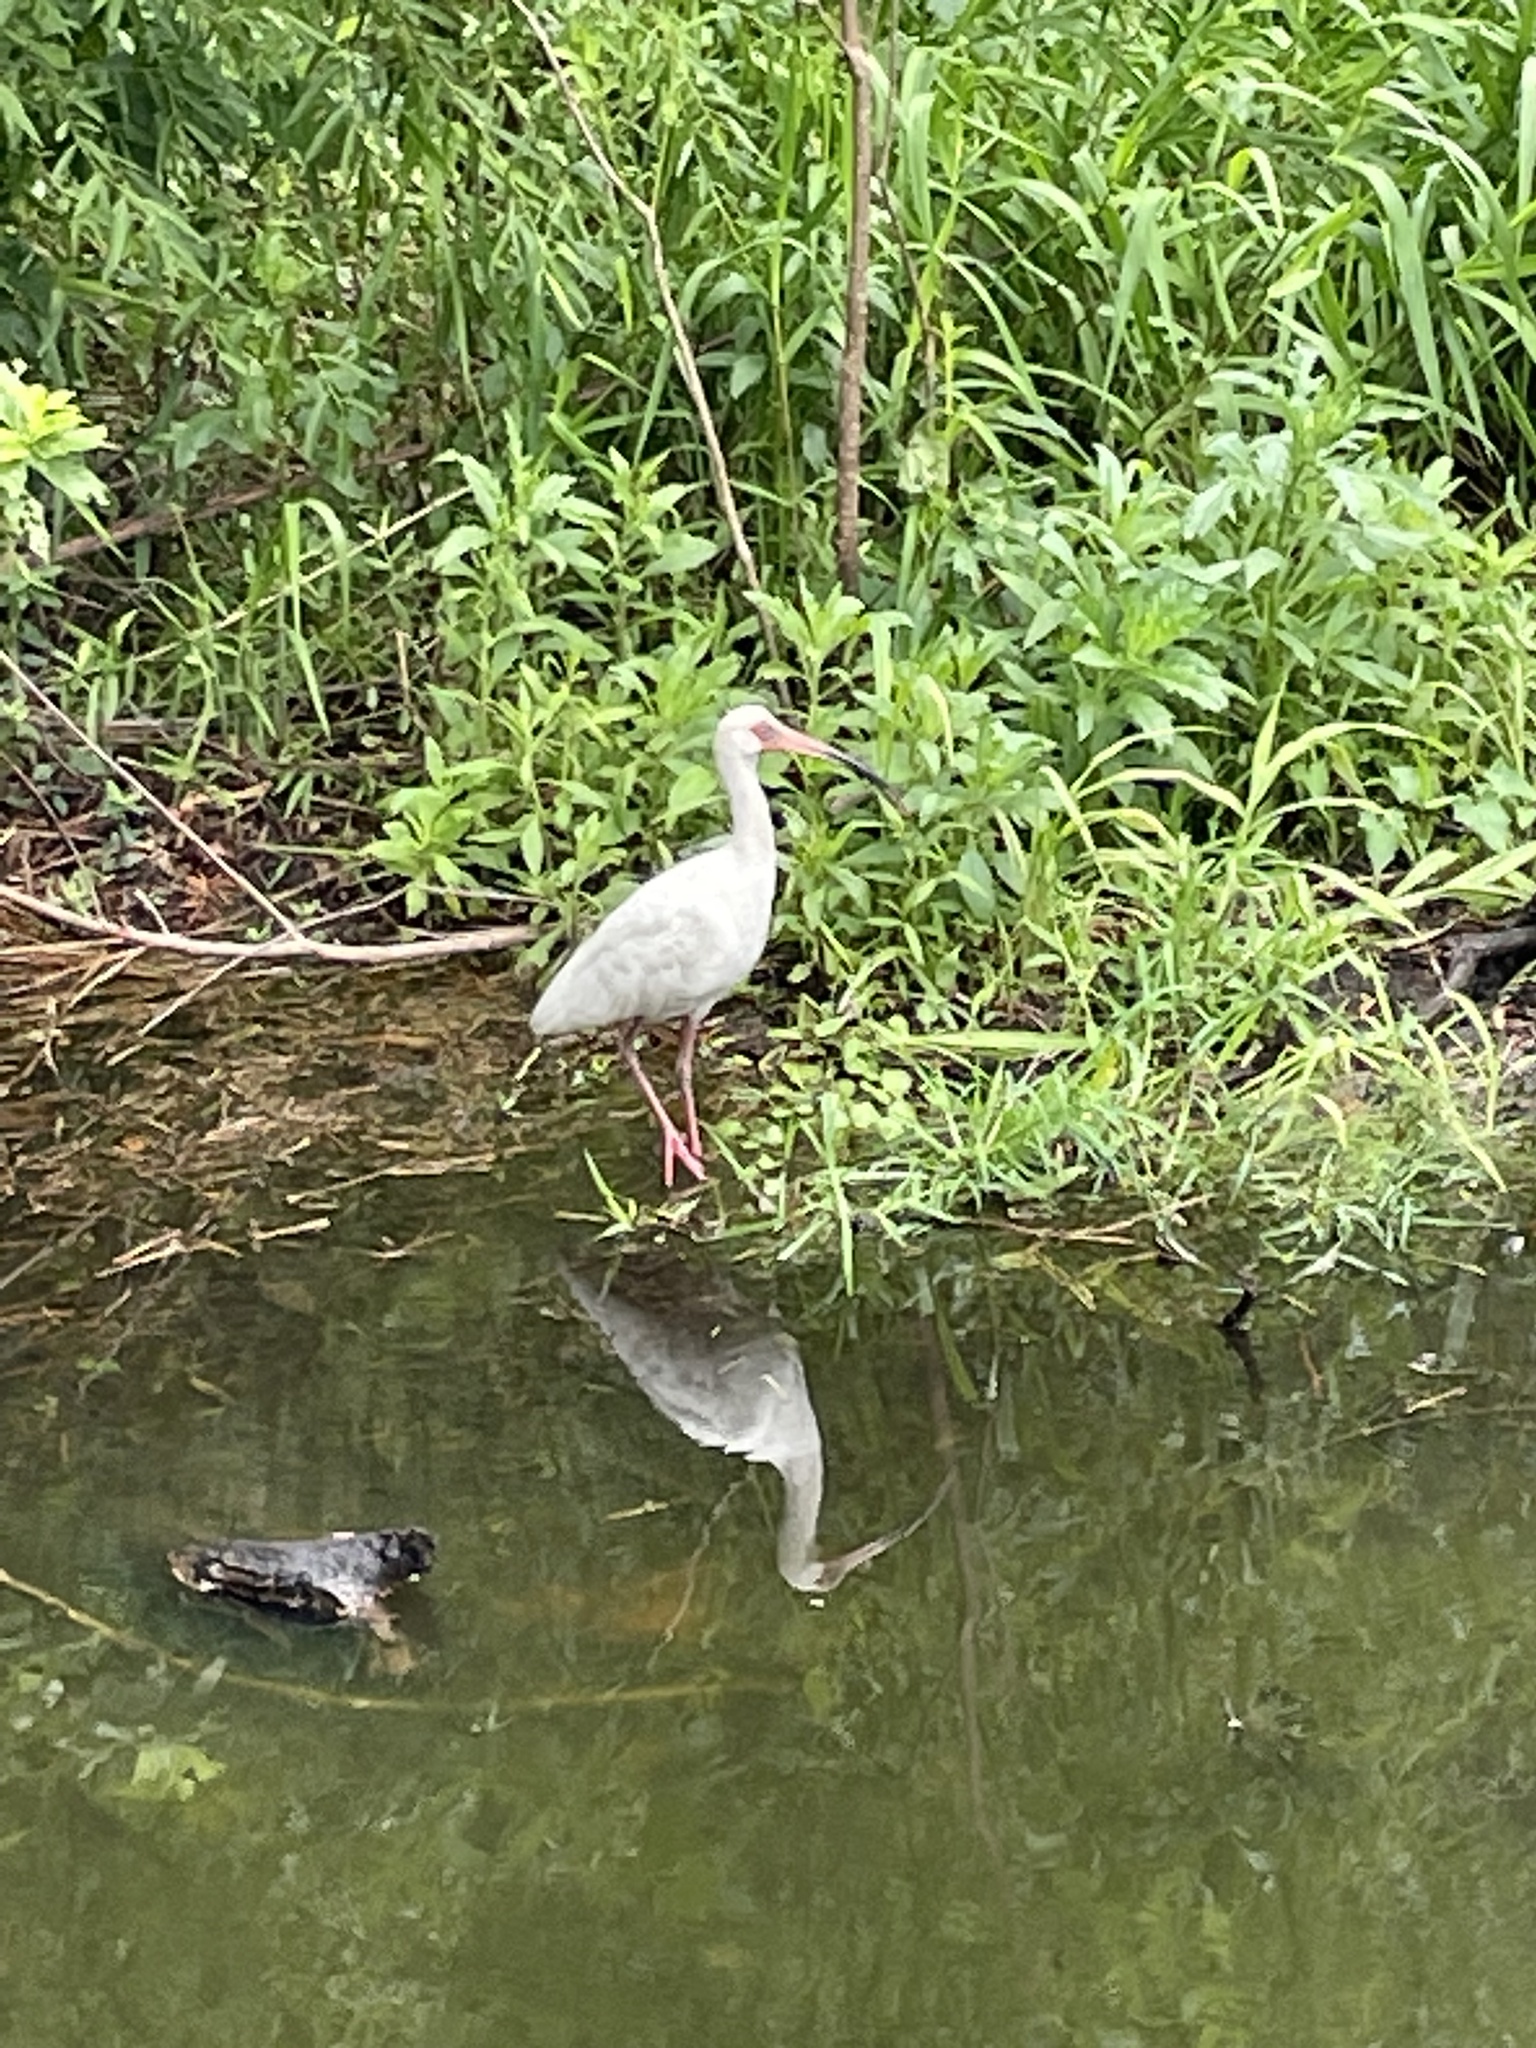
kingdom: Animalia
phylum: Chordata
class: Aves
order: Pelecaniformes
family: Threskiornithidae
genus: Eudocimus
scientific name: Eudocimus albus
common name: White ibis
